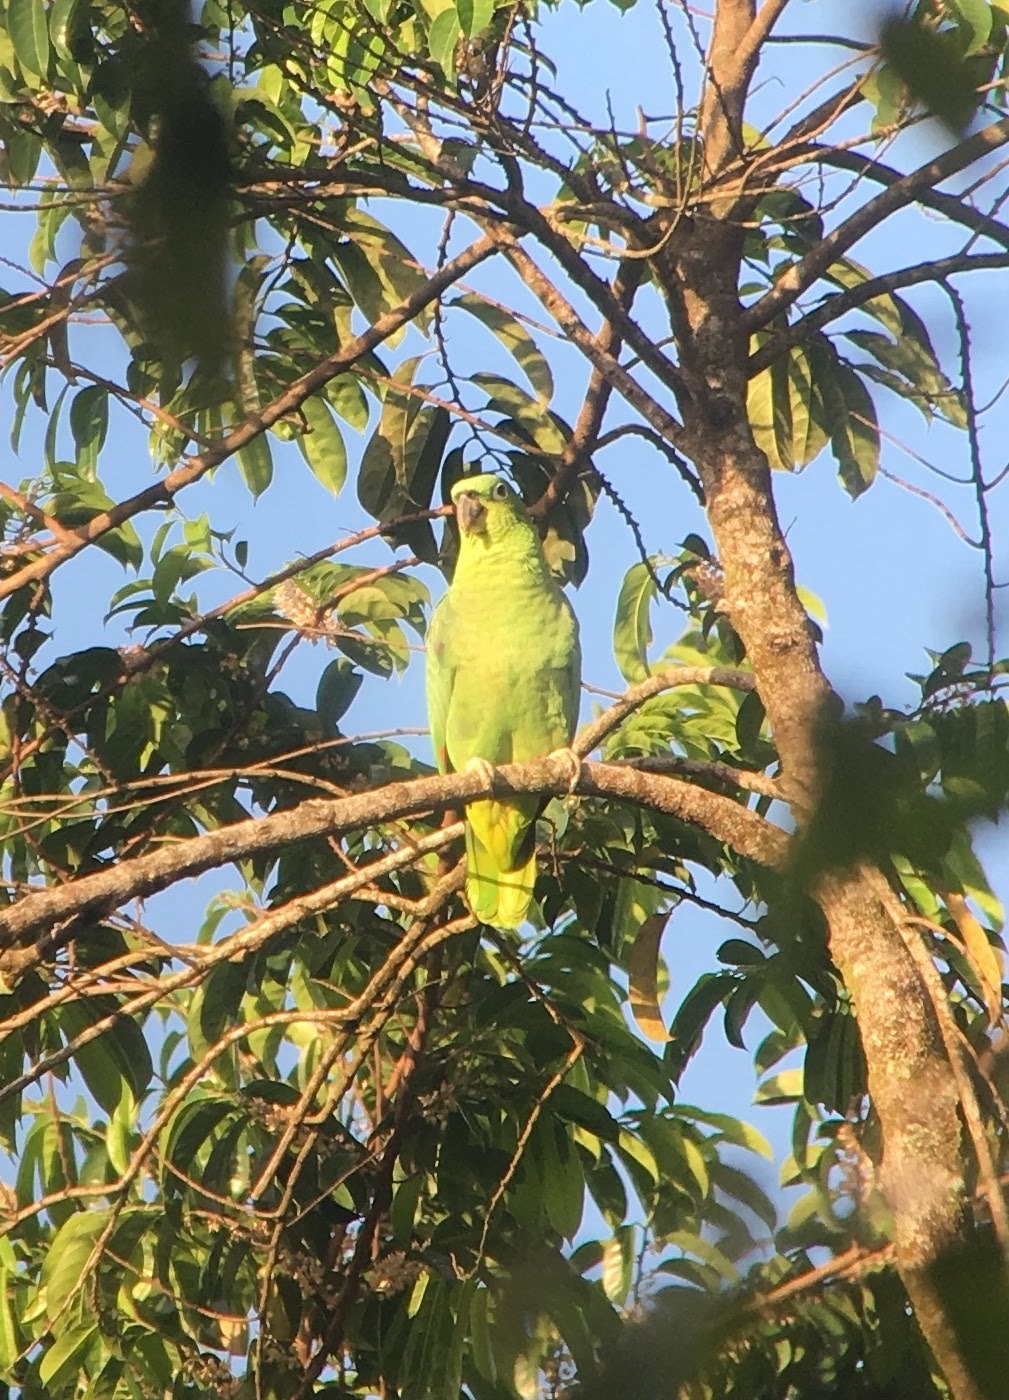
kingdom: Animalia
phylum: Chordata
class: Aves
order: Psittaciformes
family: Psittacidae
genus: Amazona
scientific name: Amazona farinosa
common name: Mealy parrot
